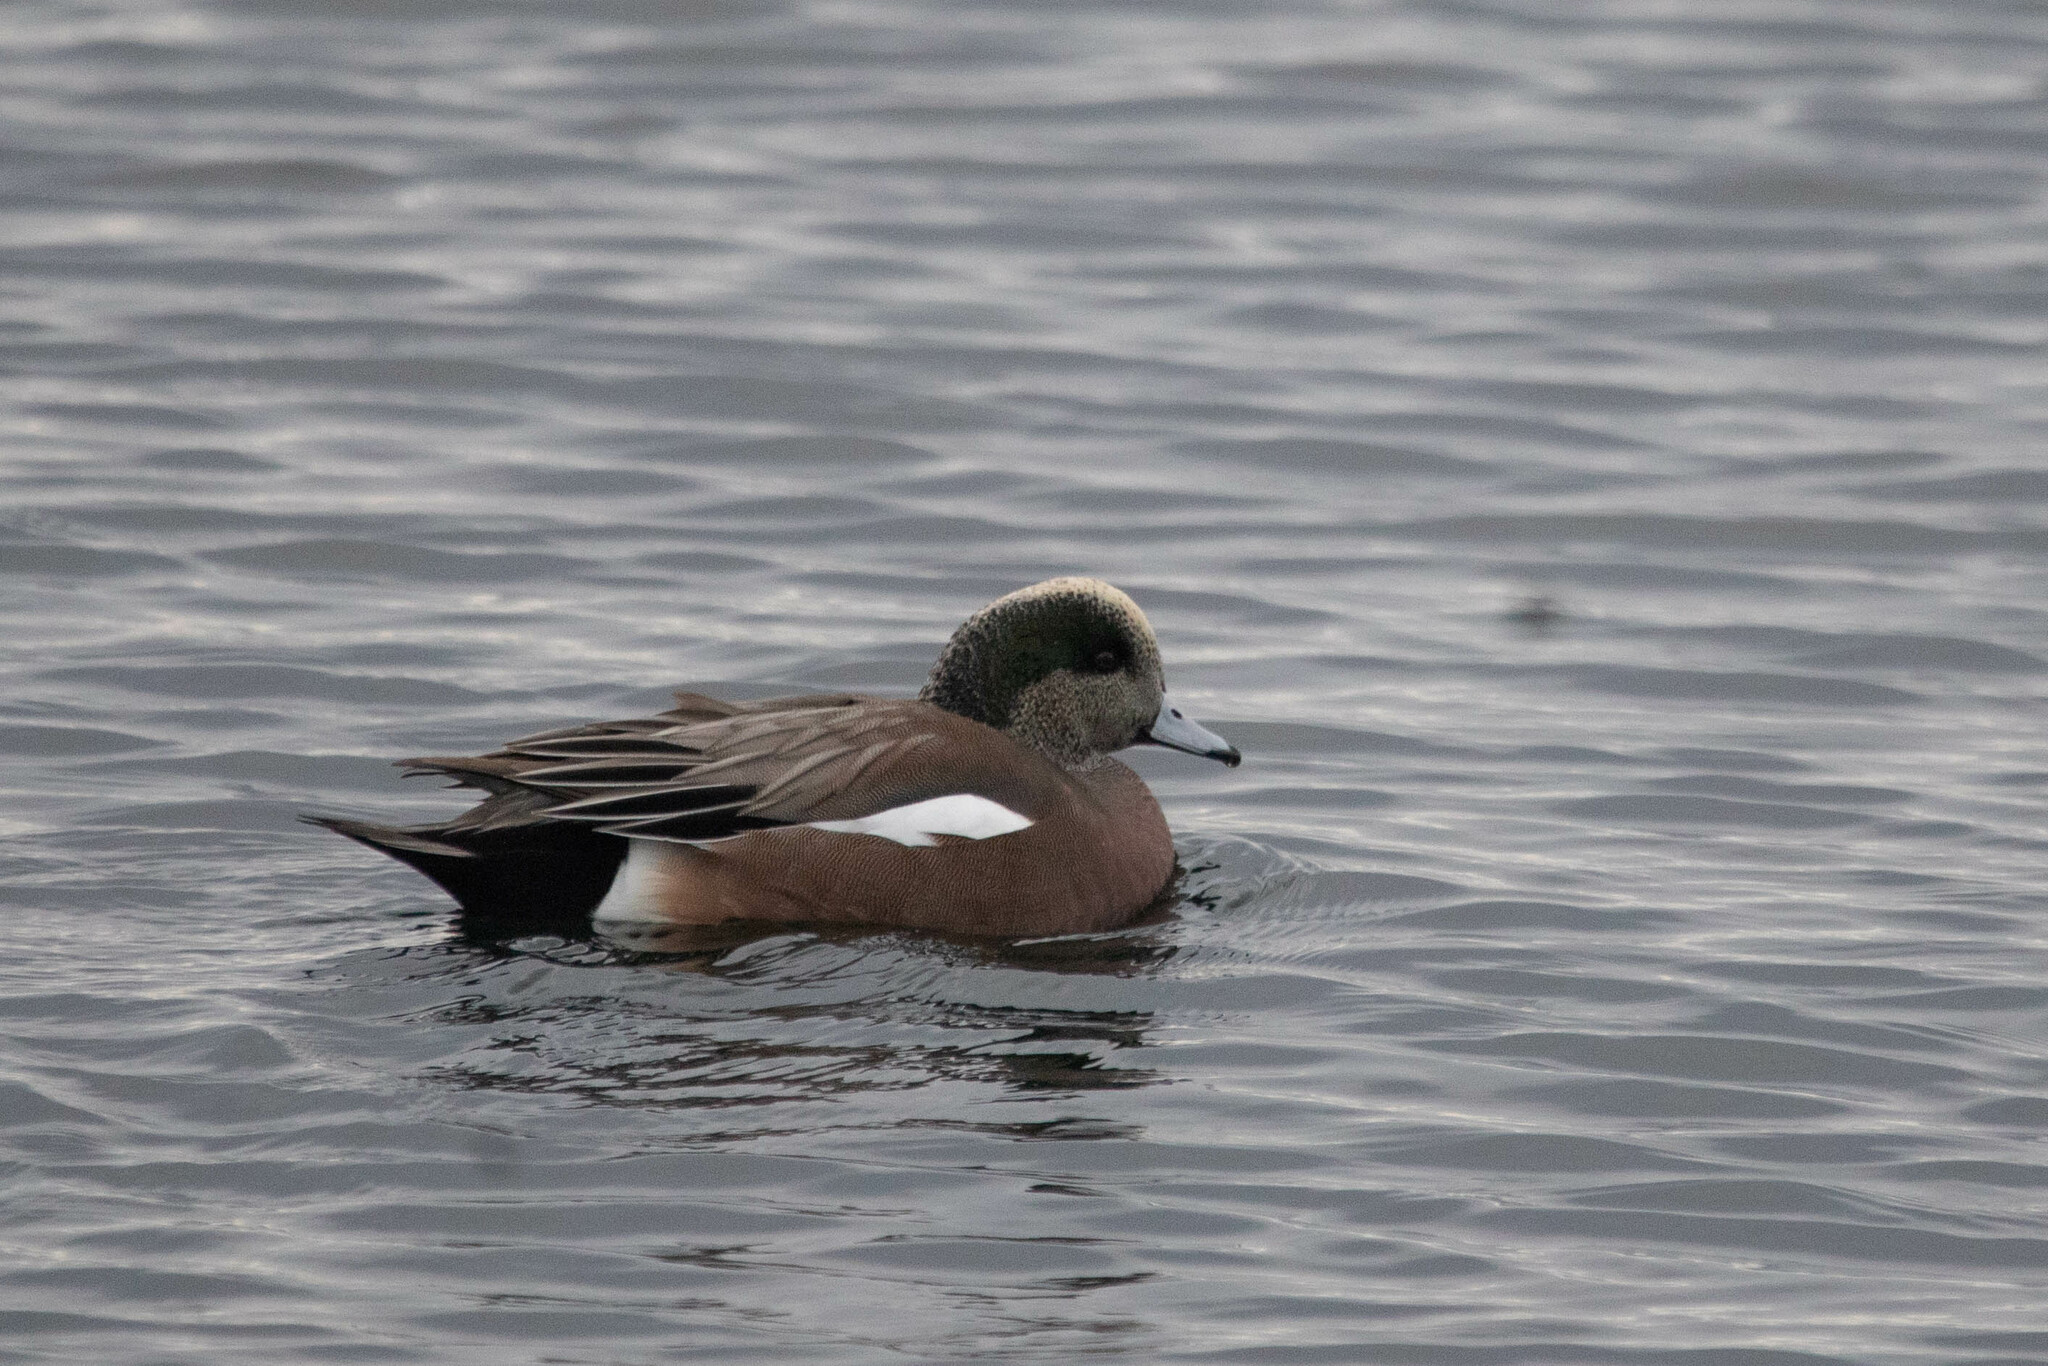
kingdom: Animalia
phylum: Chordata
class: Aves
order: Anseriformes
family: Anatidae
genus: Mareca
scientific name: Mareca americana
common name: American wigeon
